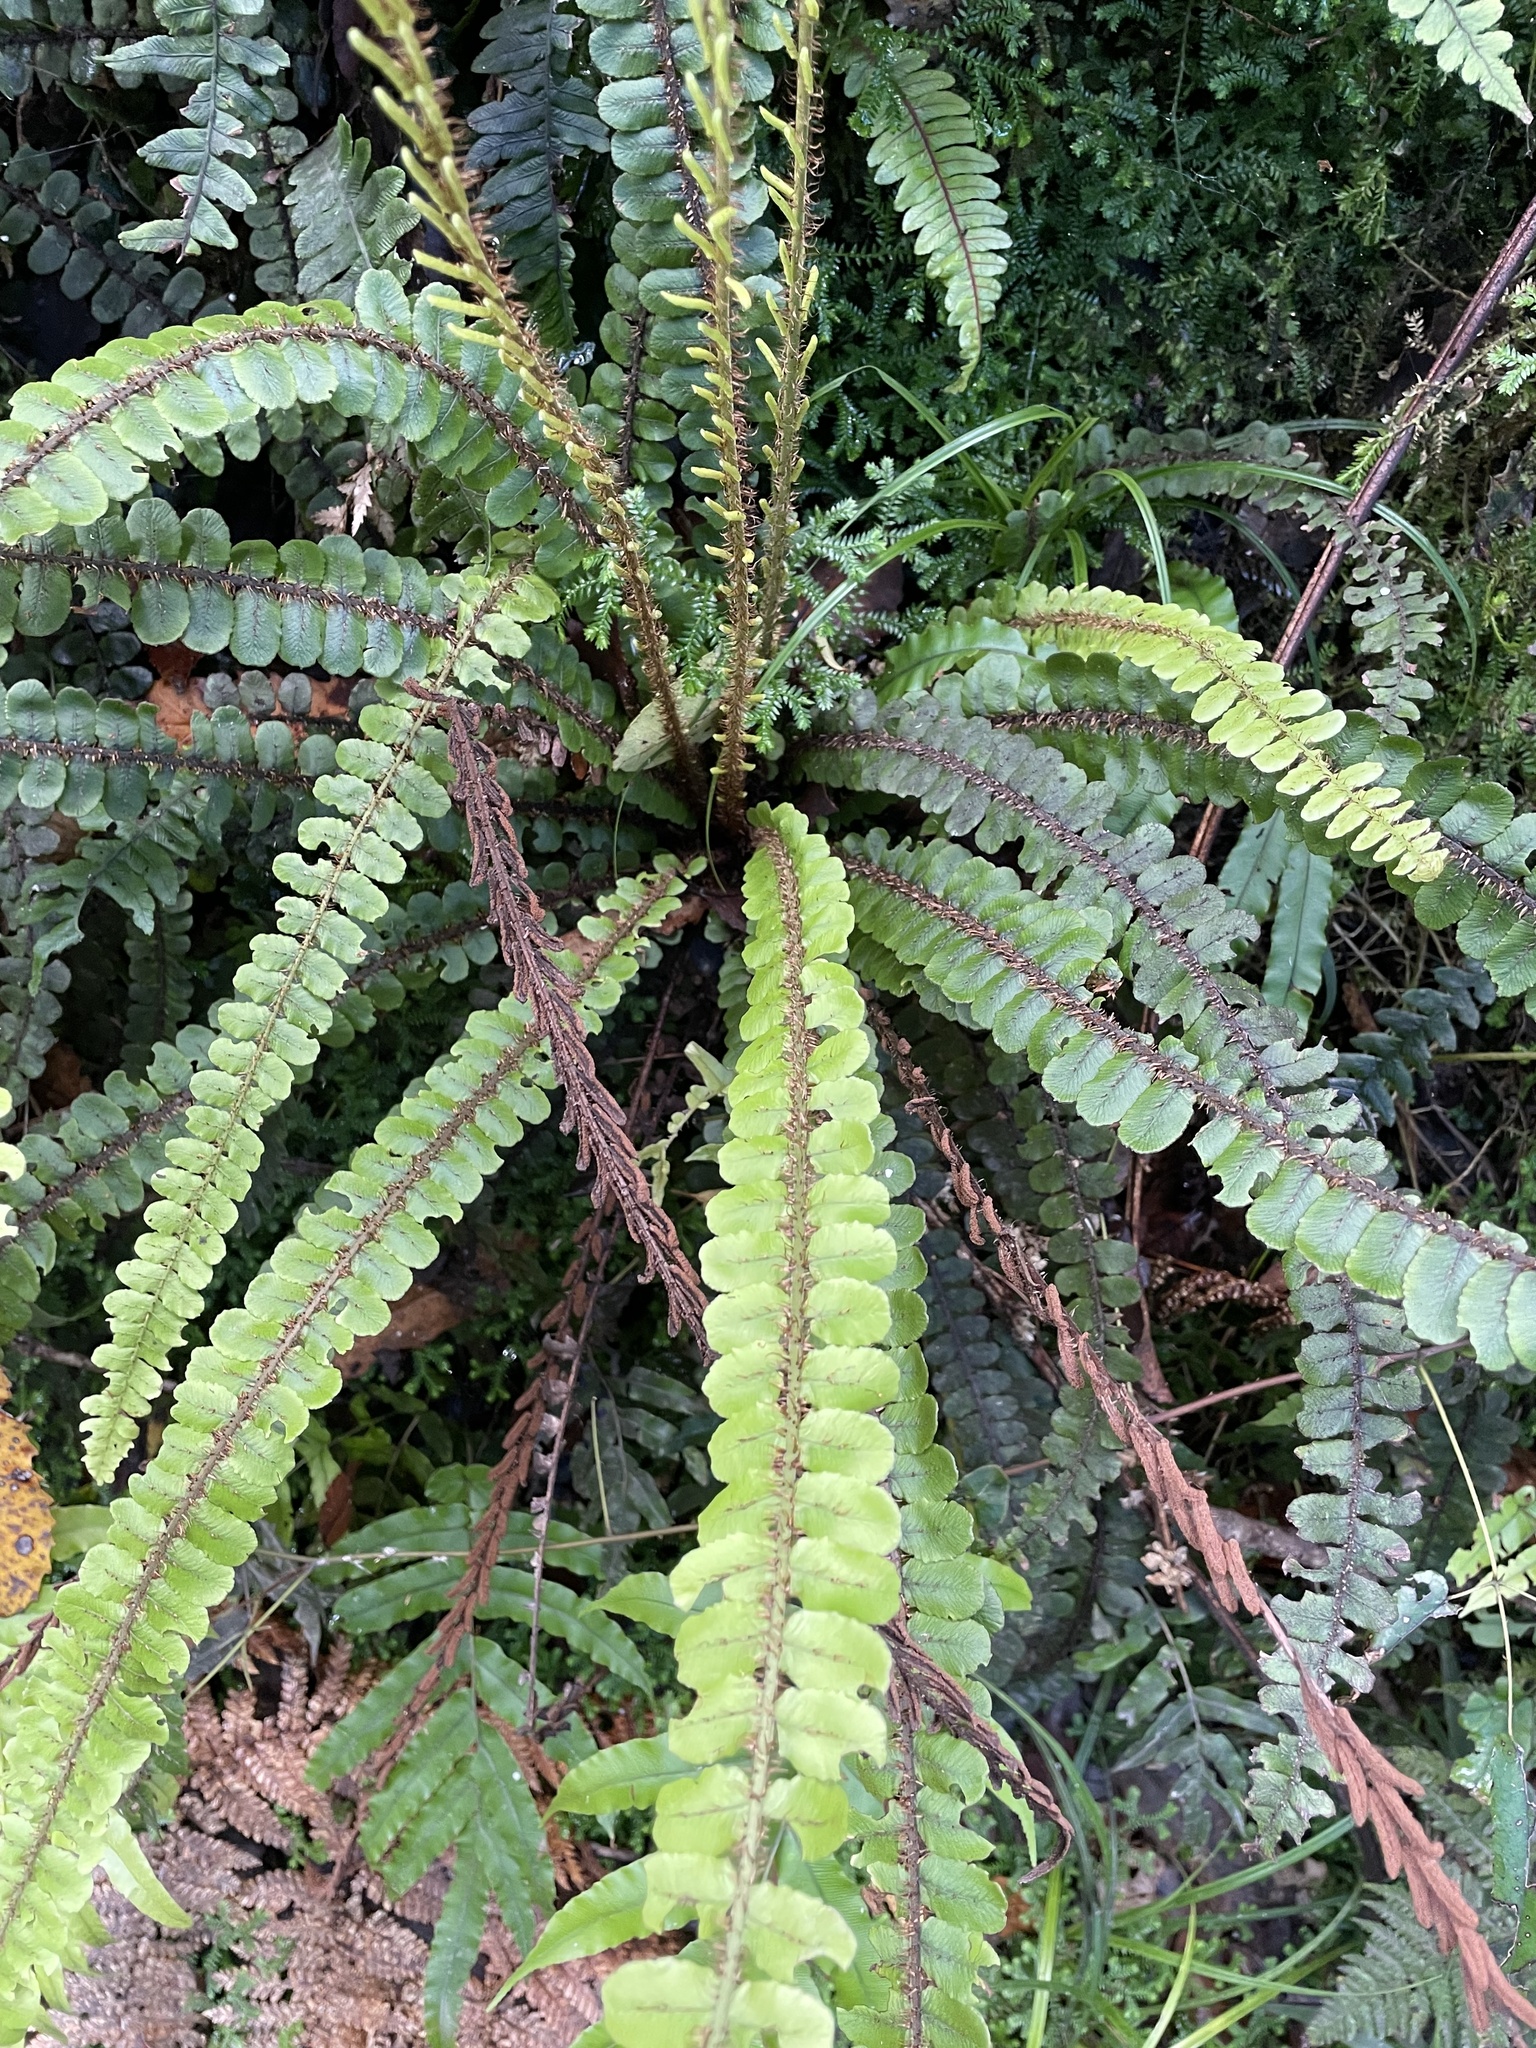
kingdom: Plantae
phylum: Tracheophyta
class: Polypodiopsida
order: Polypodiales
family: Blechnaceae
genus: Cranfillia
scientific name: Cranfillia fluviatilis
